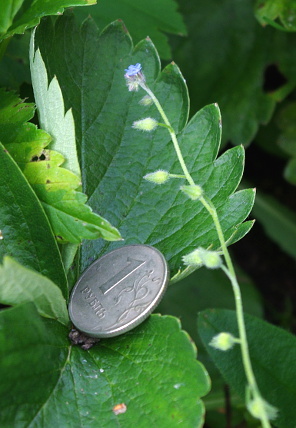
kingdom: Plantae
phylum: Tracheophyta
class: Magnoliopsida
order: Boraginales
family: Boraginaceae
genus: Myosotis
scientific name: Myosotis arvensis
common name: Field forget-me-not
